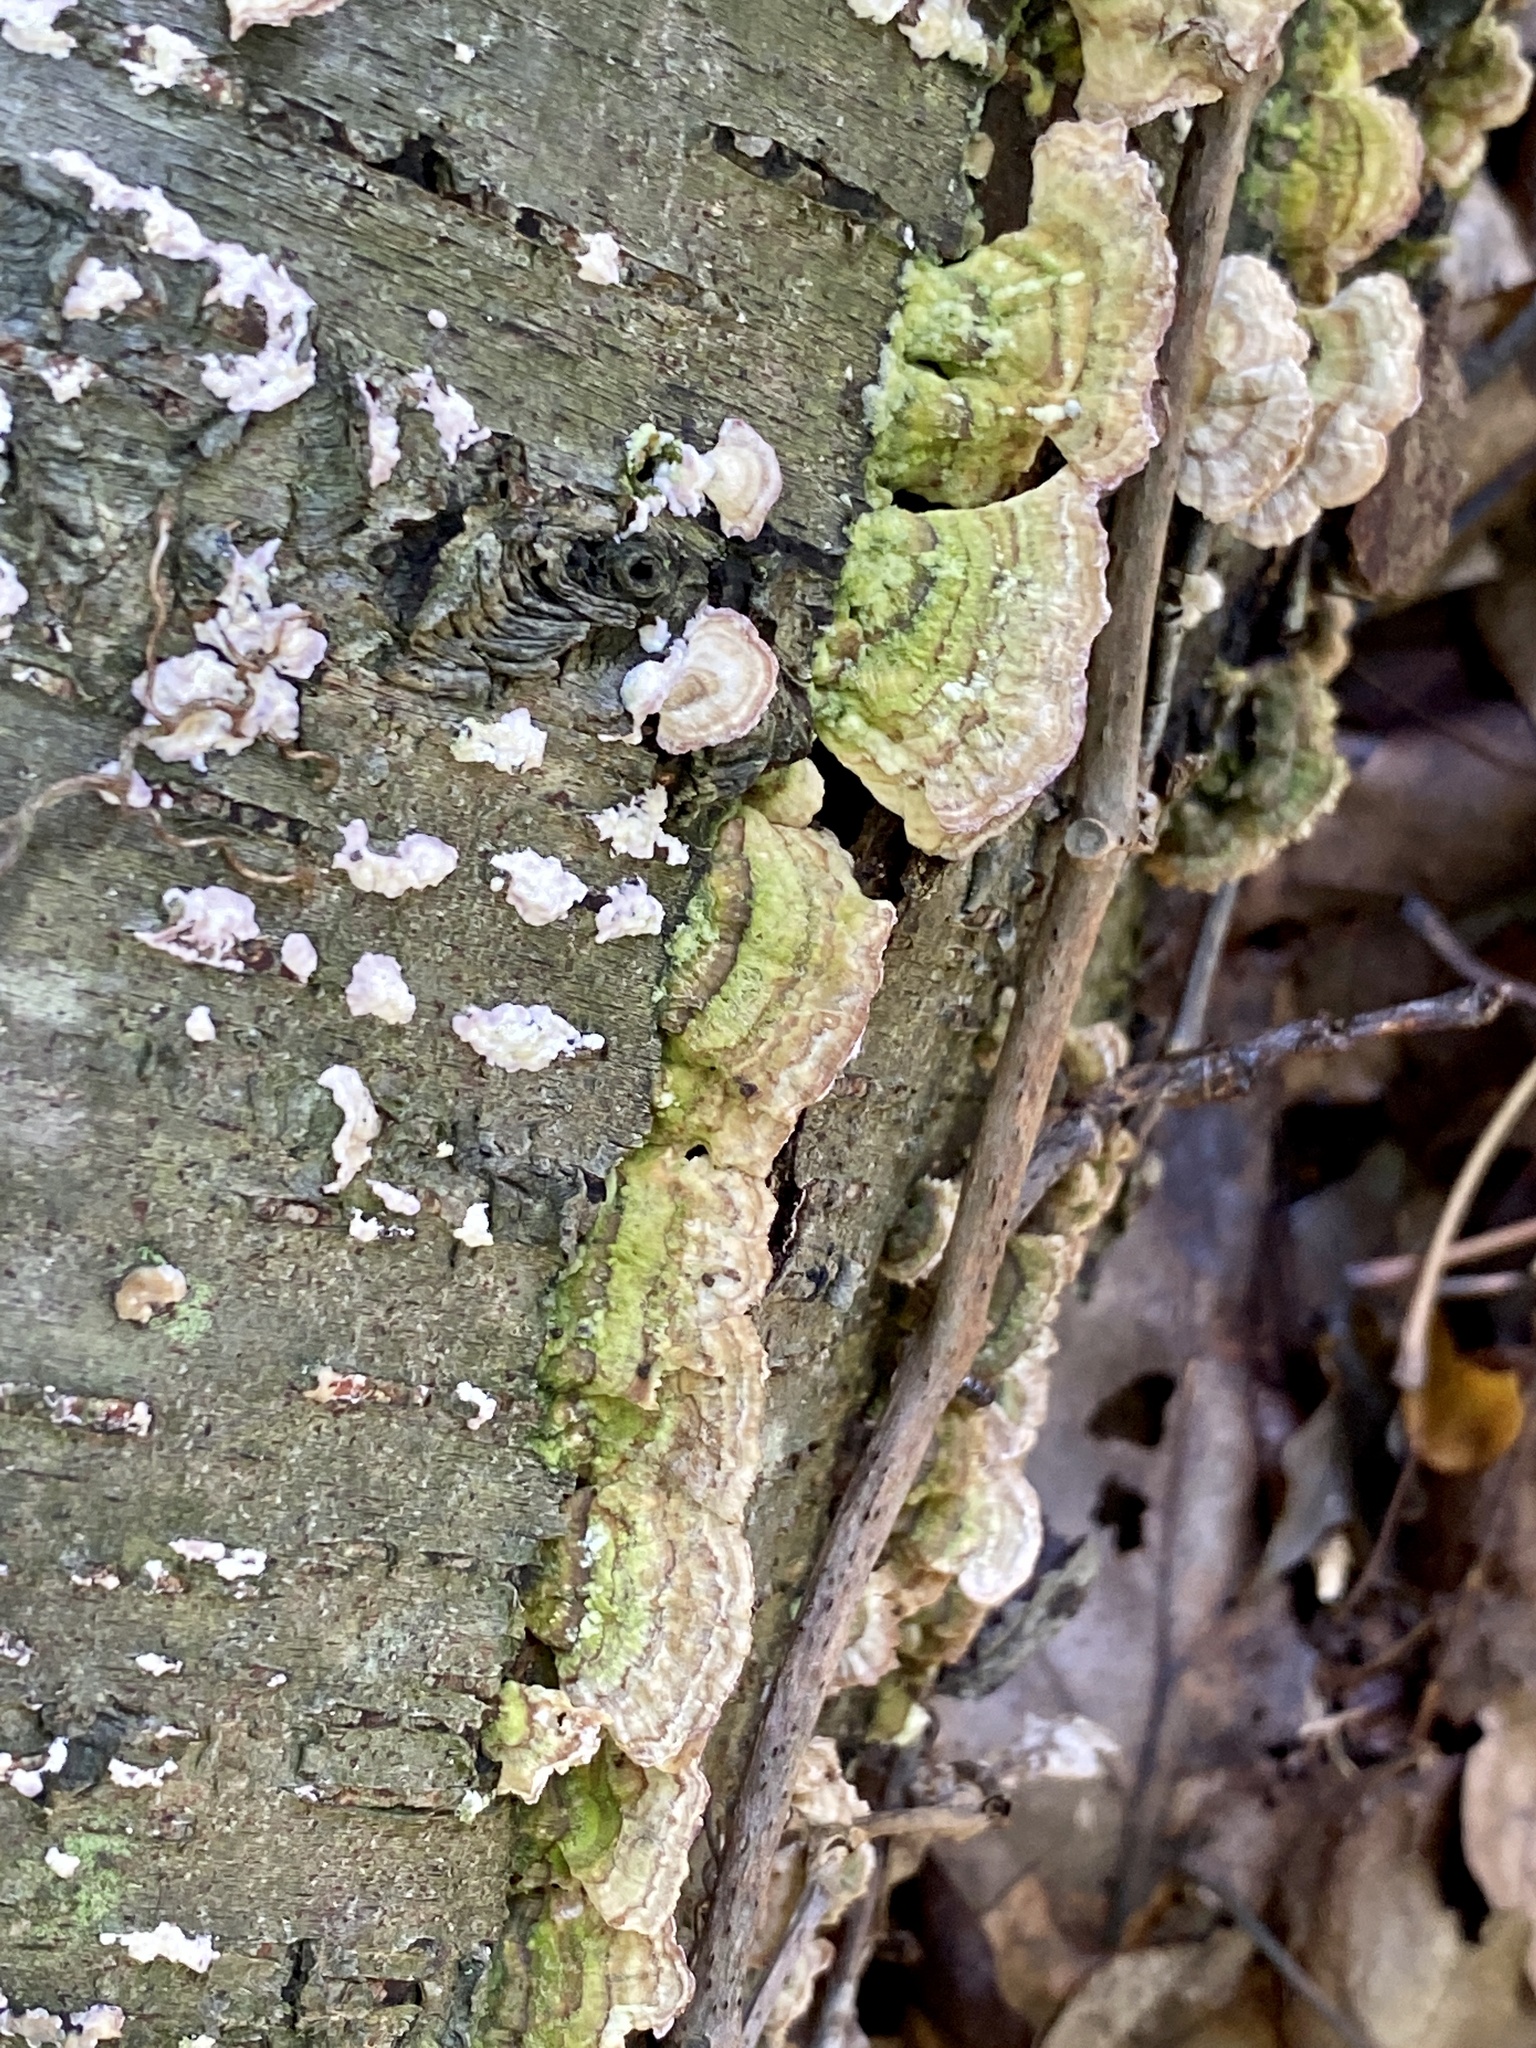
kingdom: Fungi
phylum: Basidiomycota
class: Agaricomycetes
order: Hymenochaetales
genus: Trichaptum
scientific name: Trichaptum biforme
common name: Violet-toothed polypore
